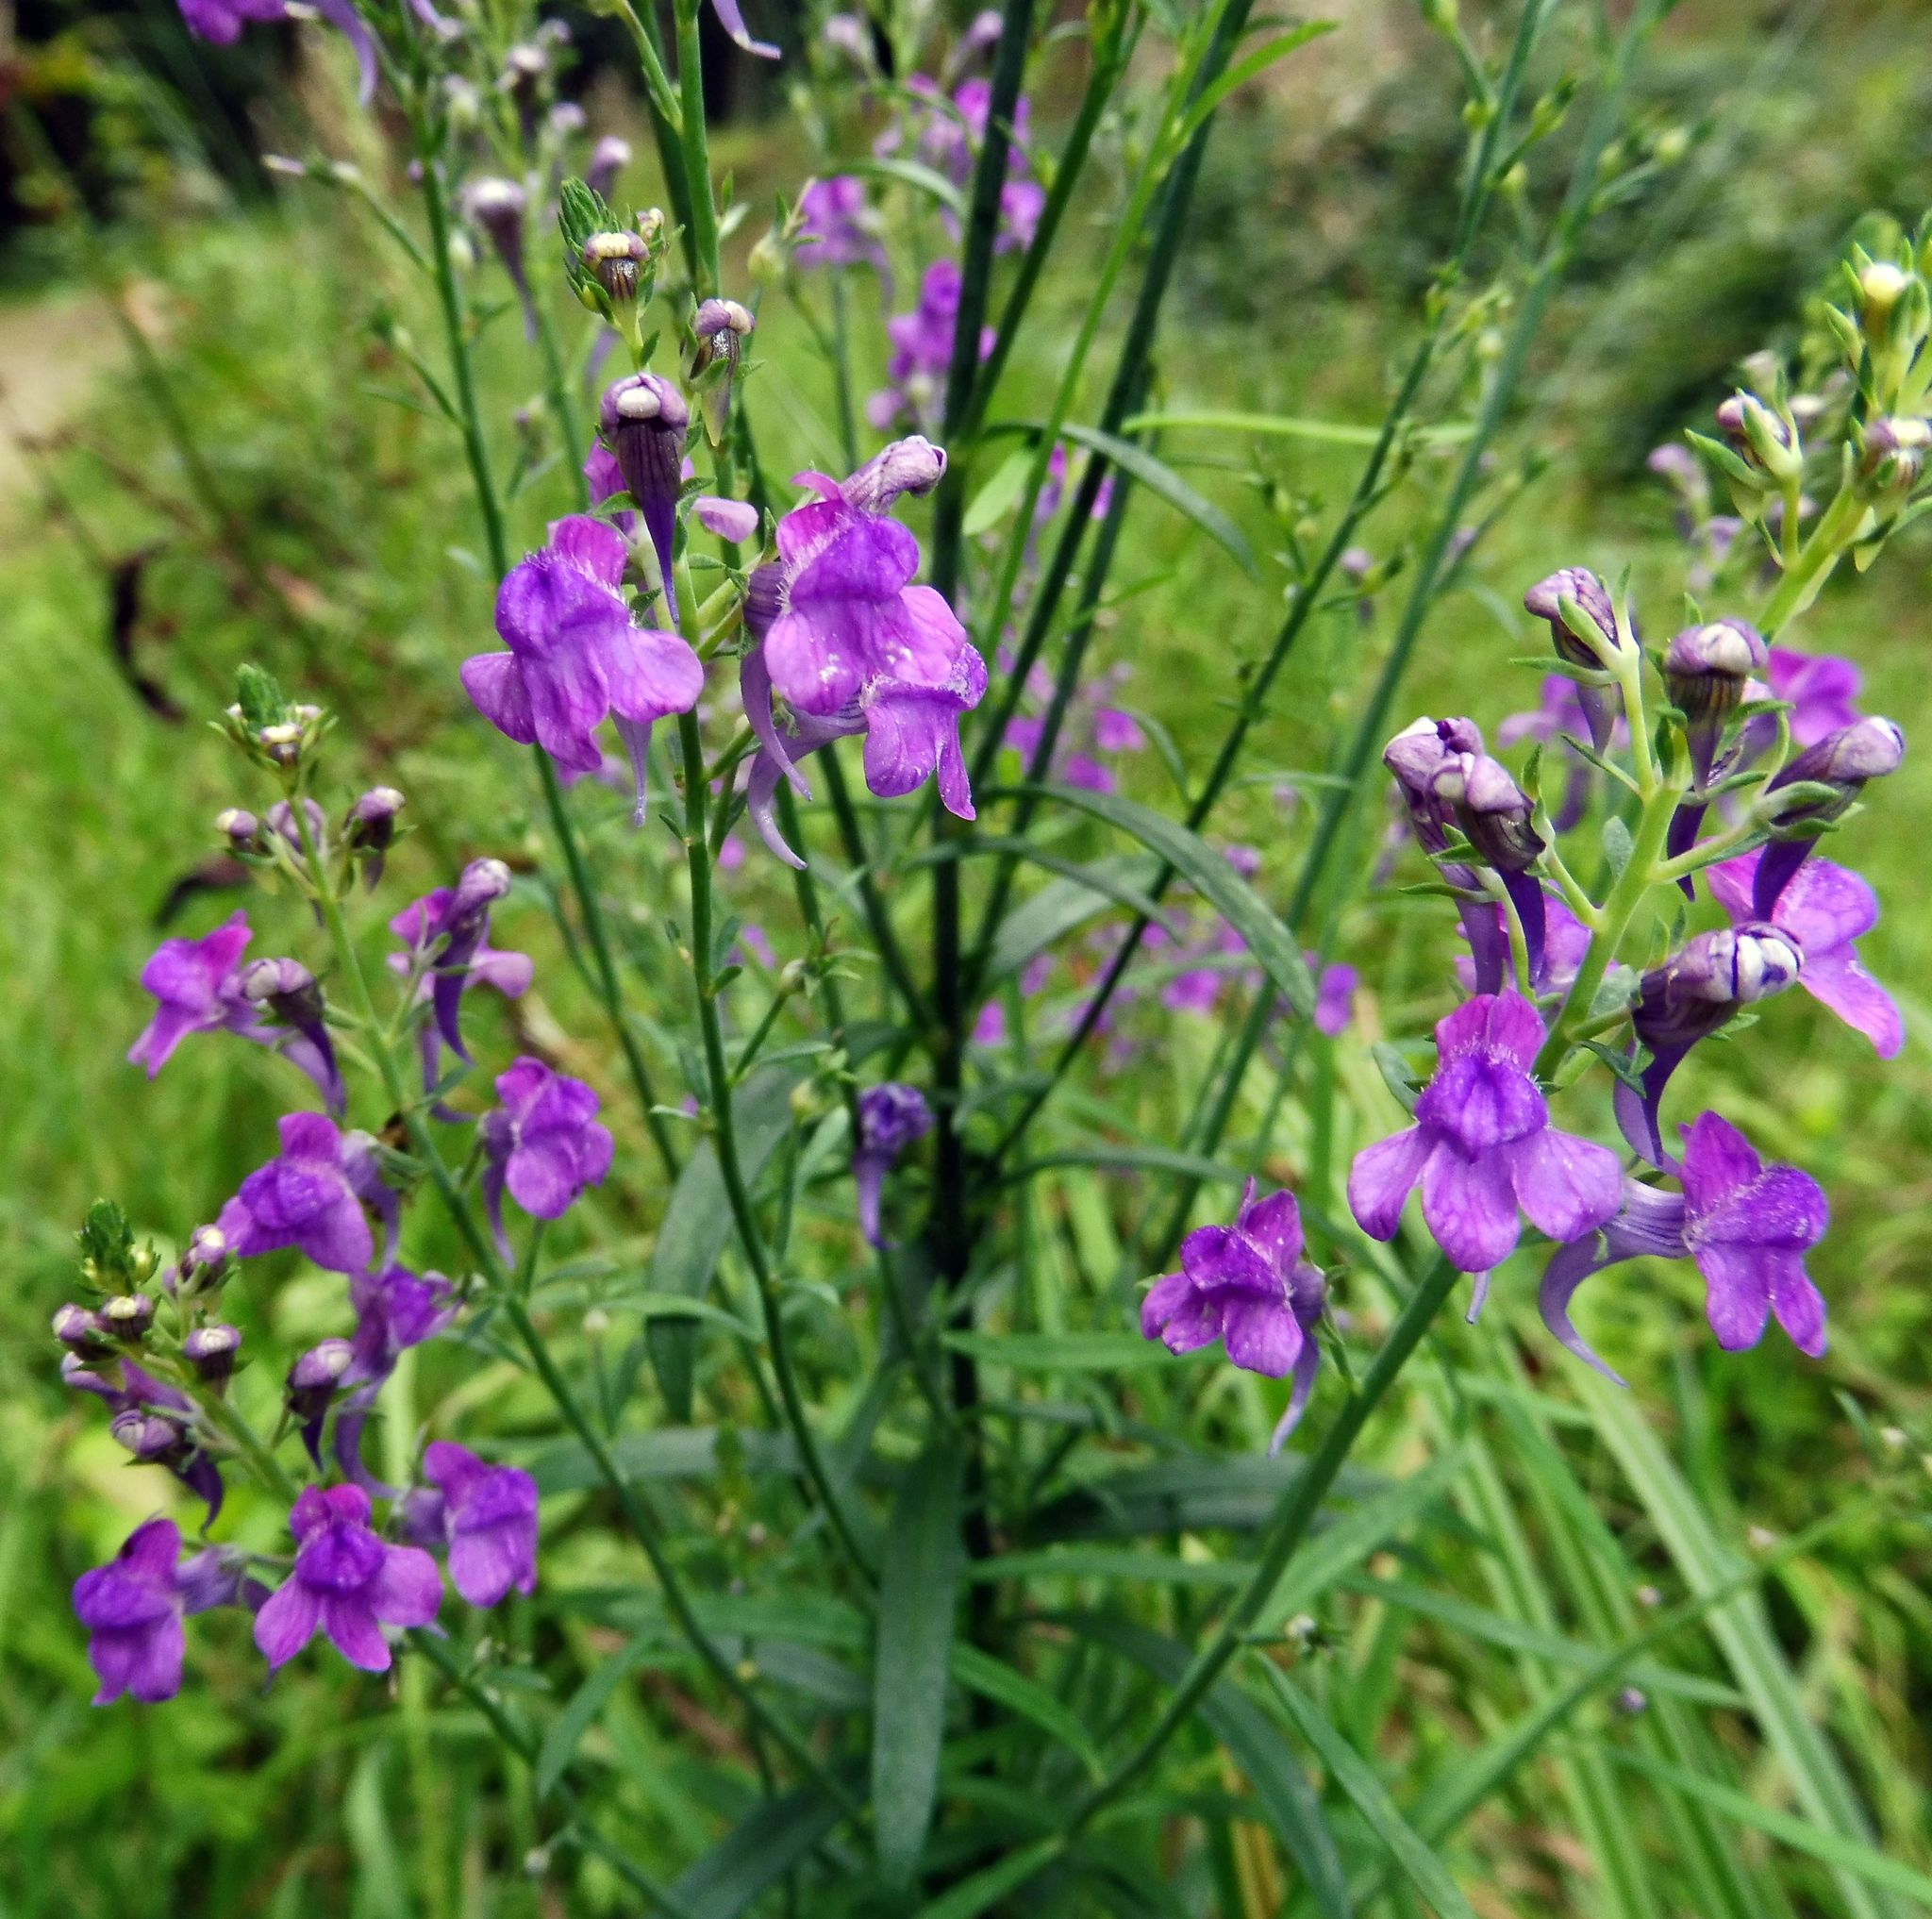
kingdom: Plantae
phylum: Tracheophyta
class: Magnoliopsida
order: Lamiales
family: Plantaginaceae
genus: Linaria
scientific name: Linaria purpurea
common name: Purple toadflax
